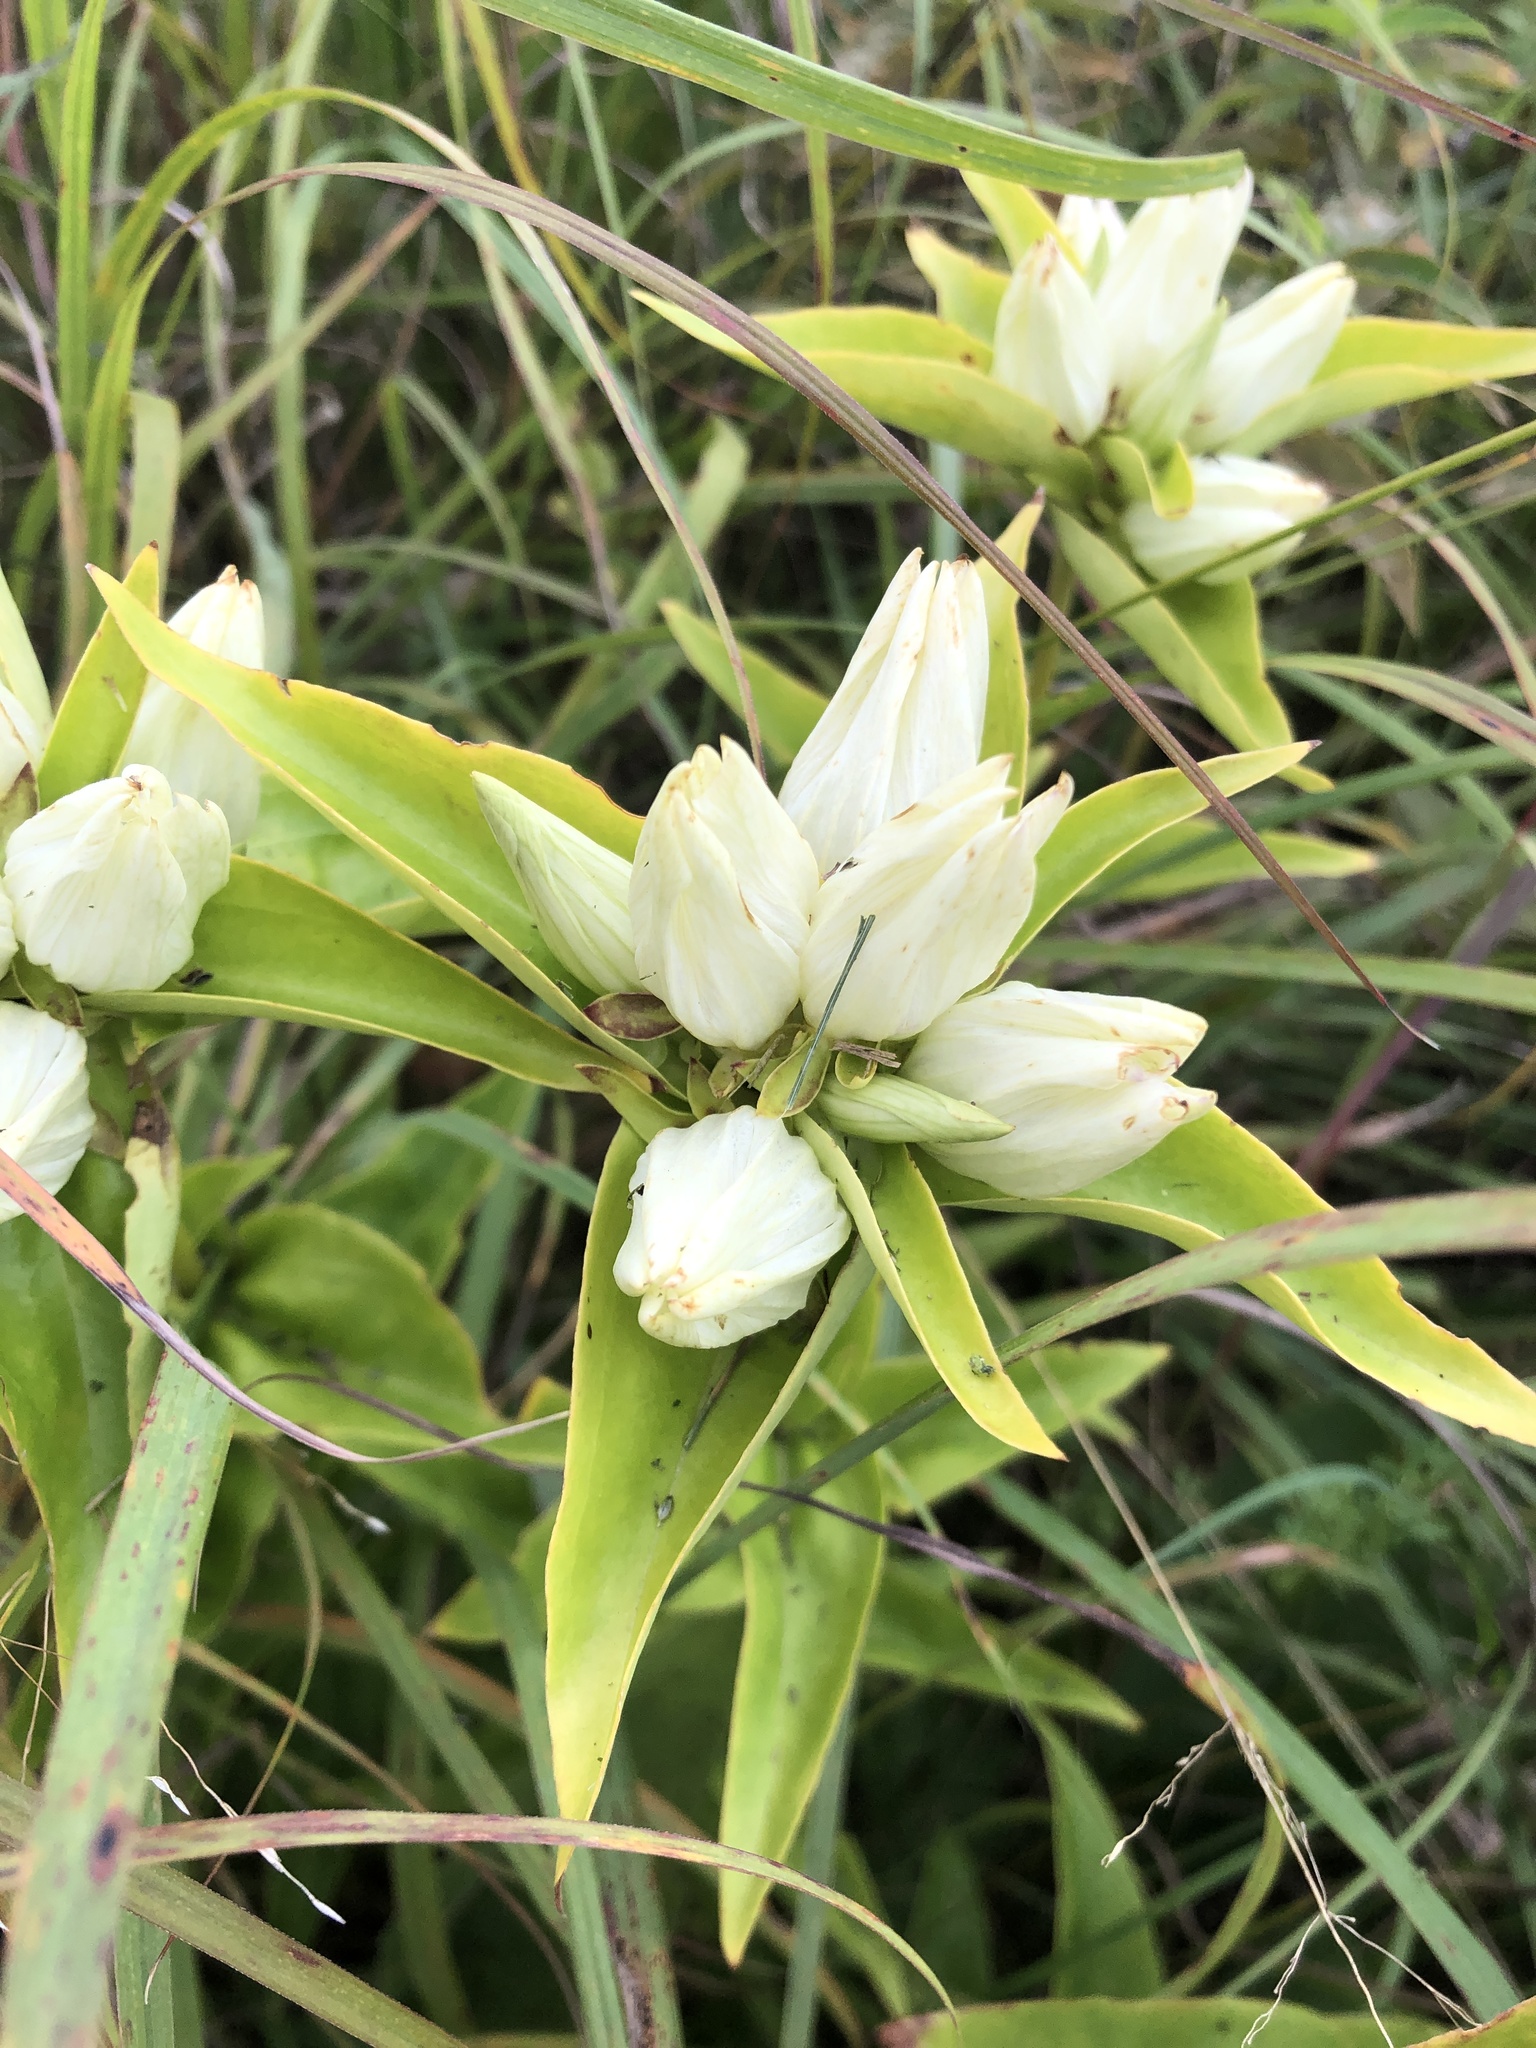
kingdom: Plantae
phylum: Tracheophyta
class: Magnoliopsida
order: Gentianales
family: Gentianaceae
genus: Gentiana
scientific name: Gentiana alba
